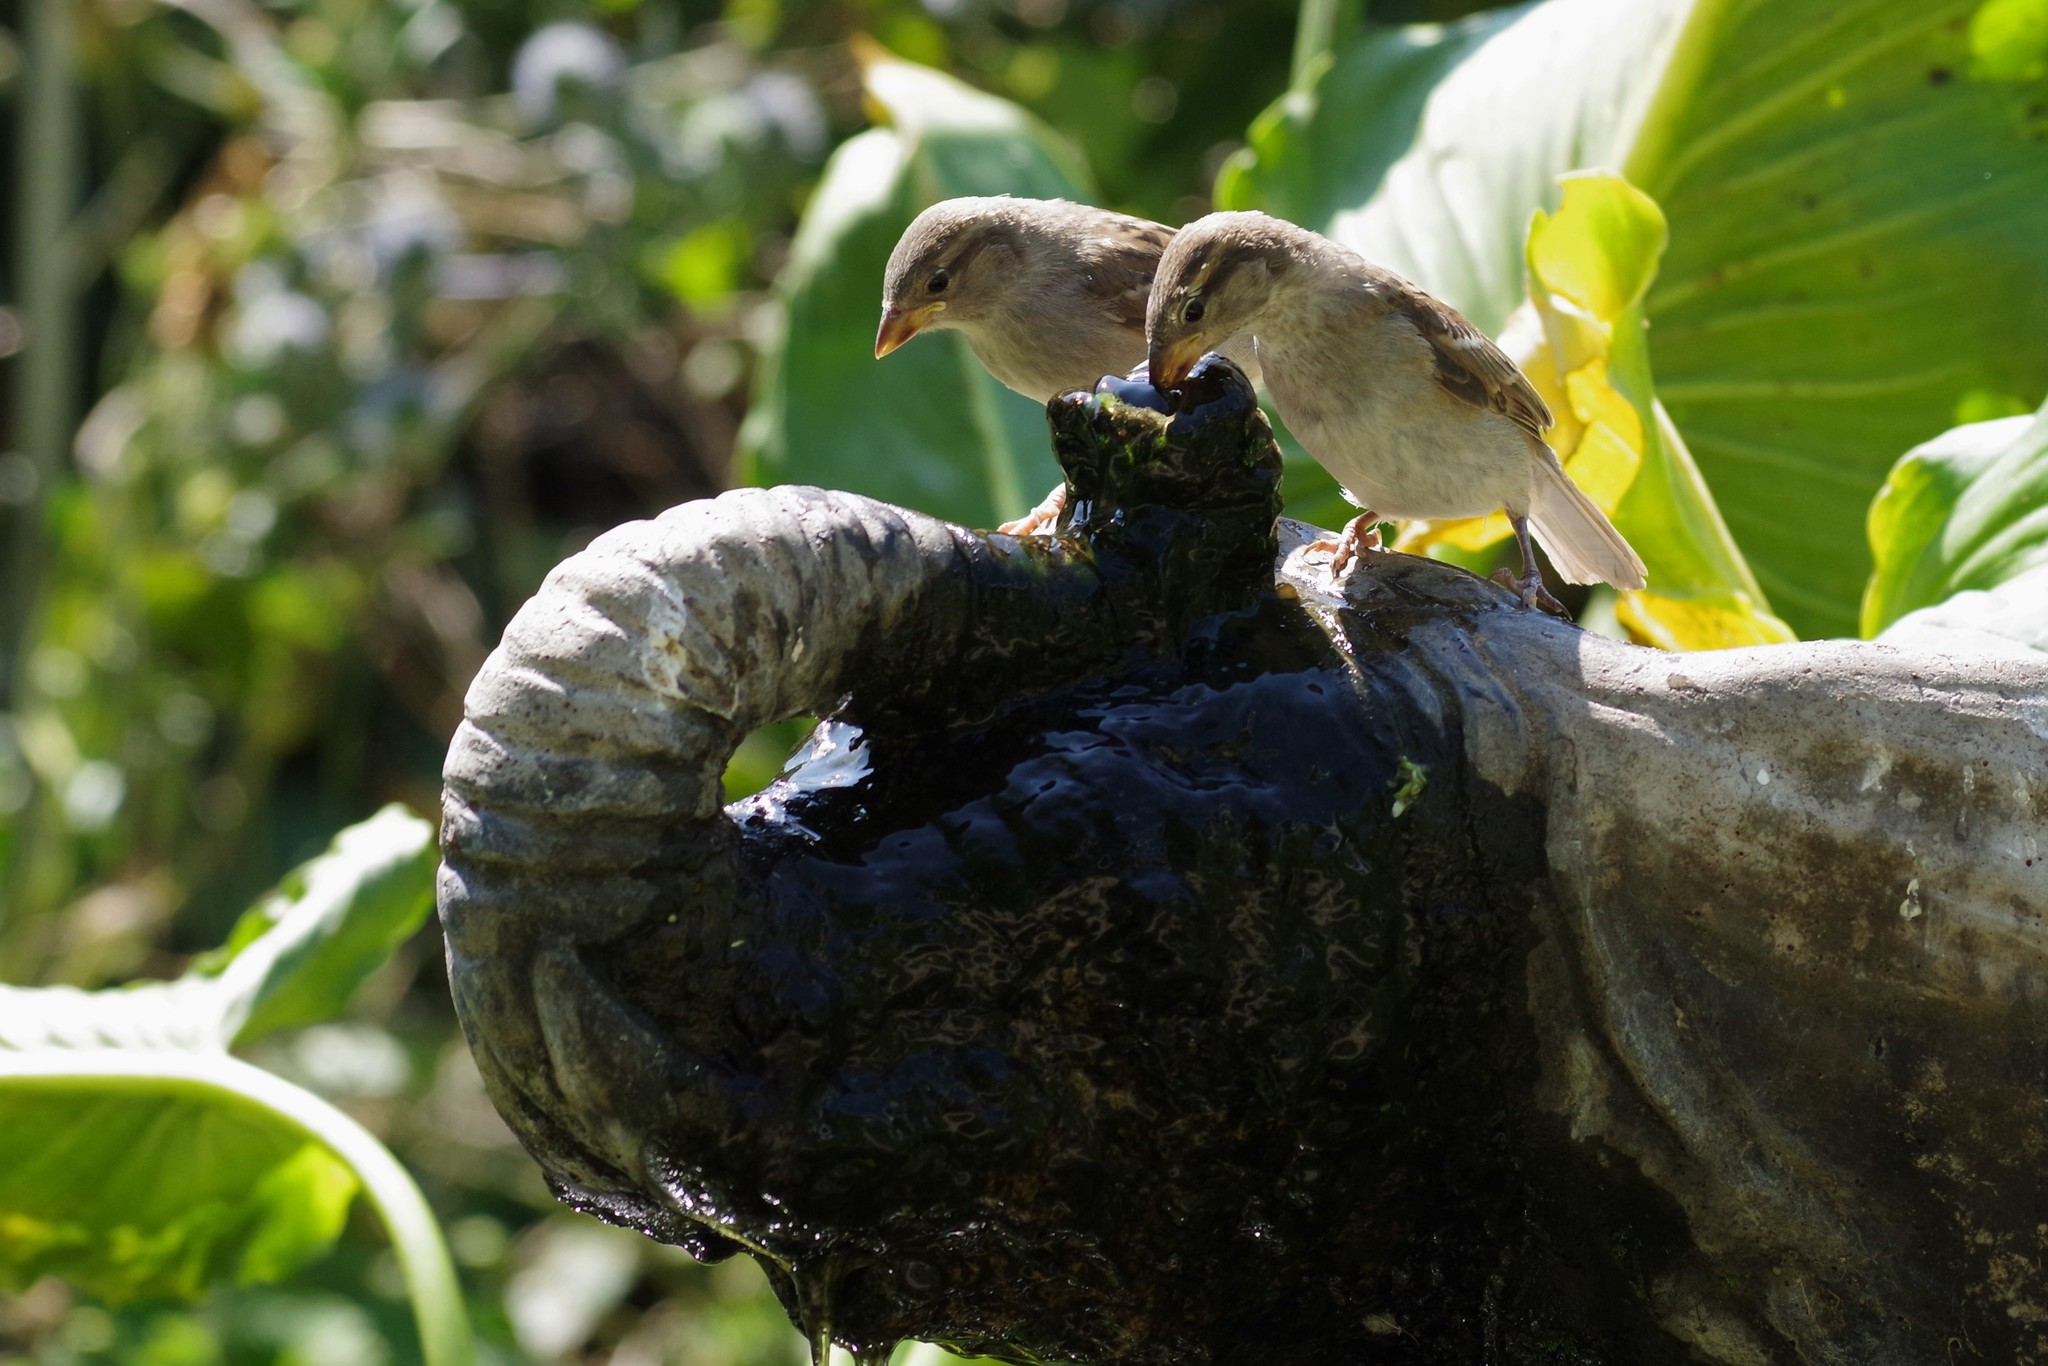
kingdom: Animalia
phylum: Chordata
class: Aves
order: Passeriformes
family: Passeridae
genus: Passer
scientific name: Passer domesticus
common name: House sparrow
